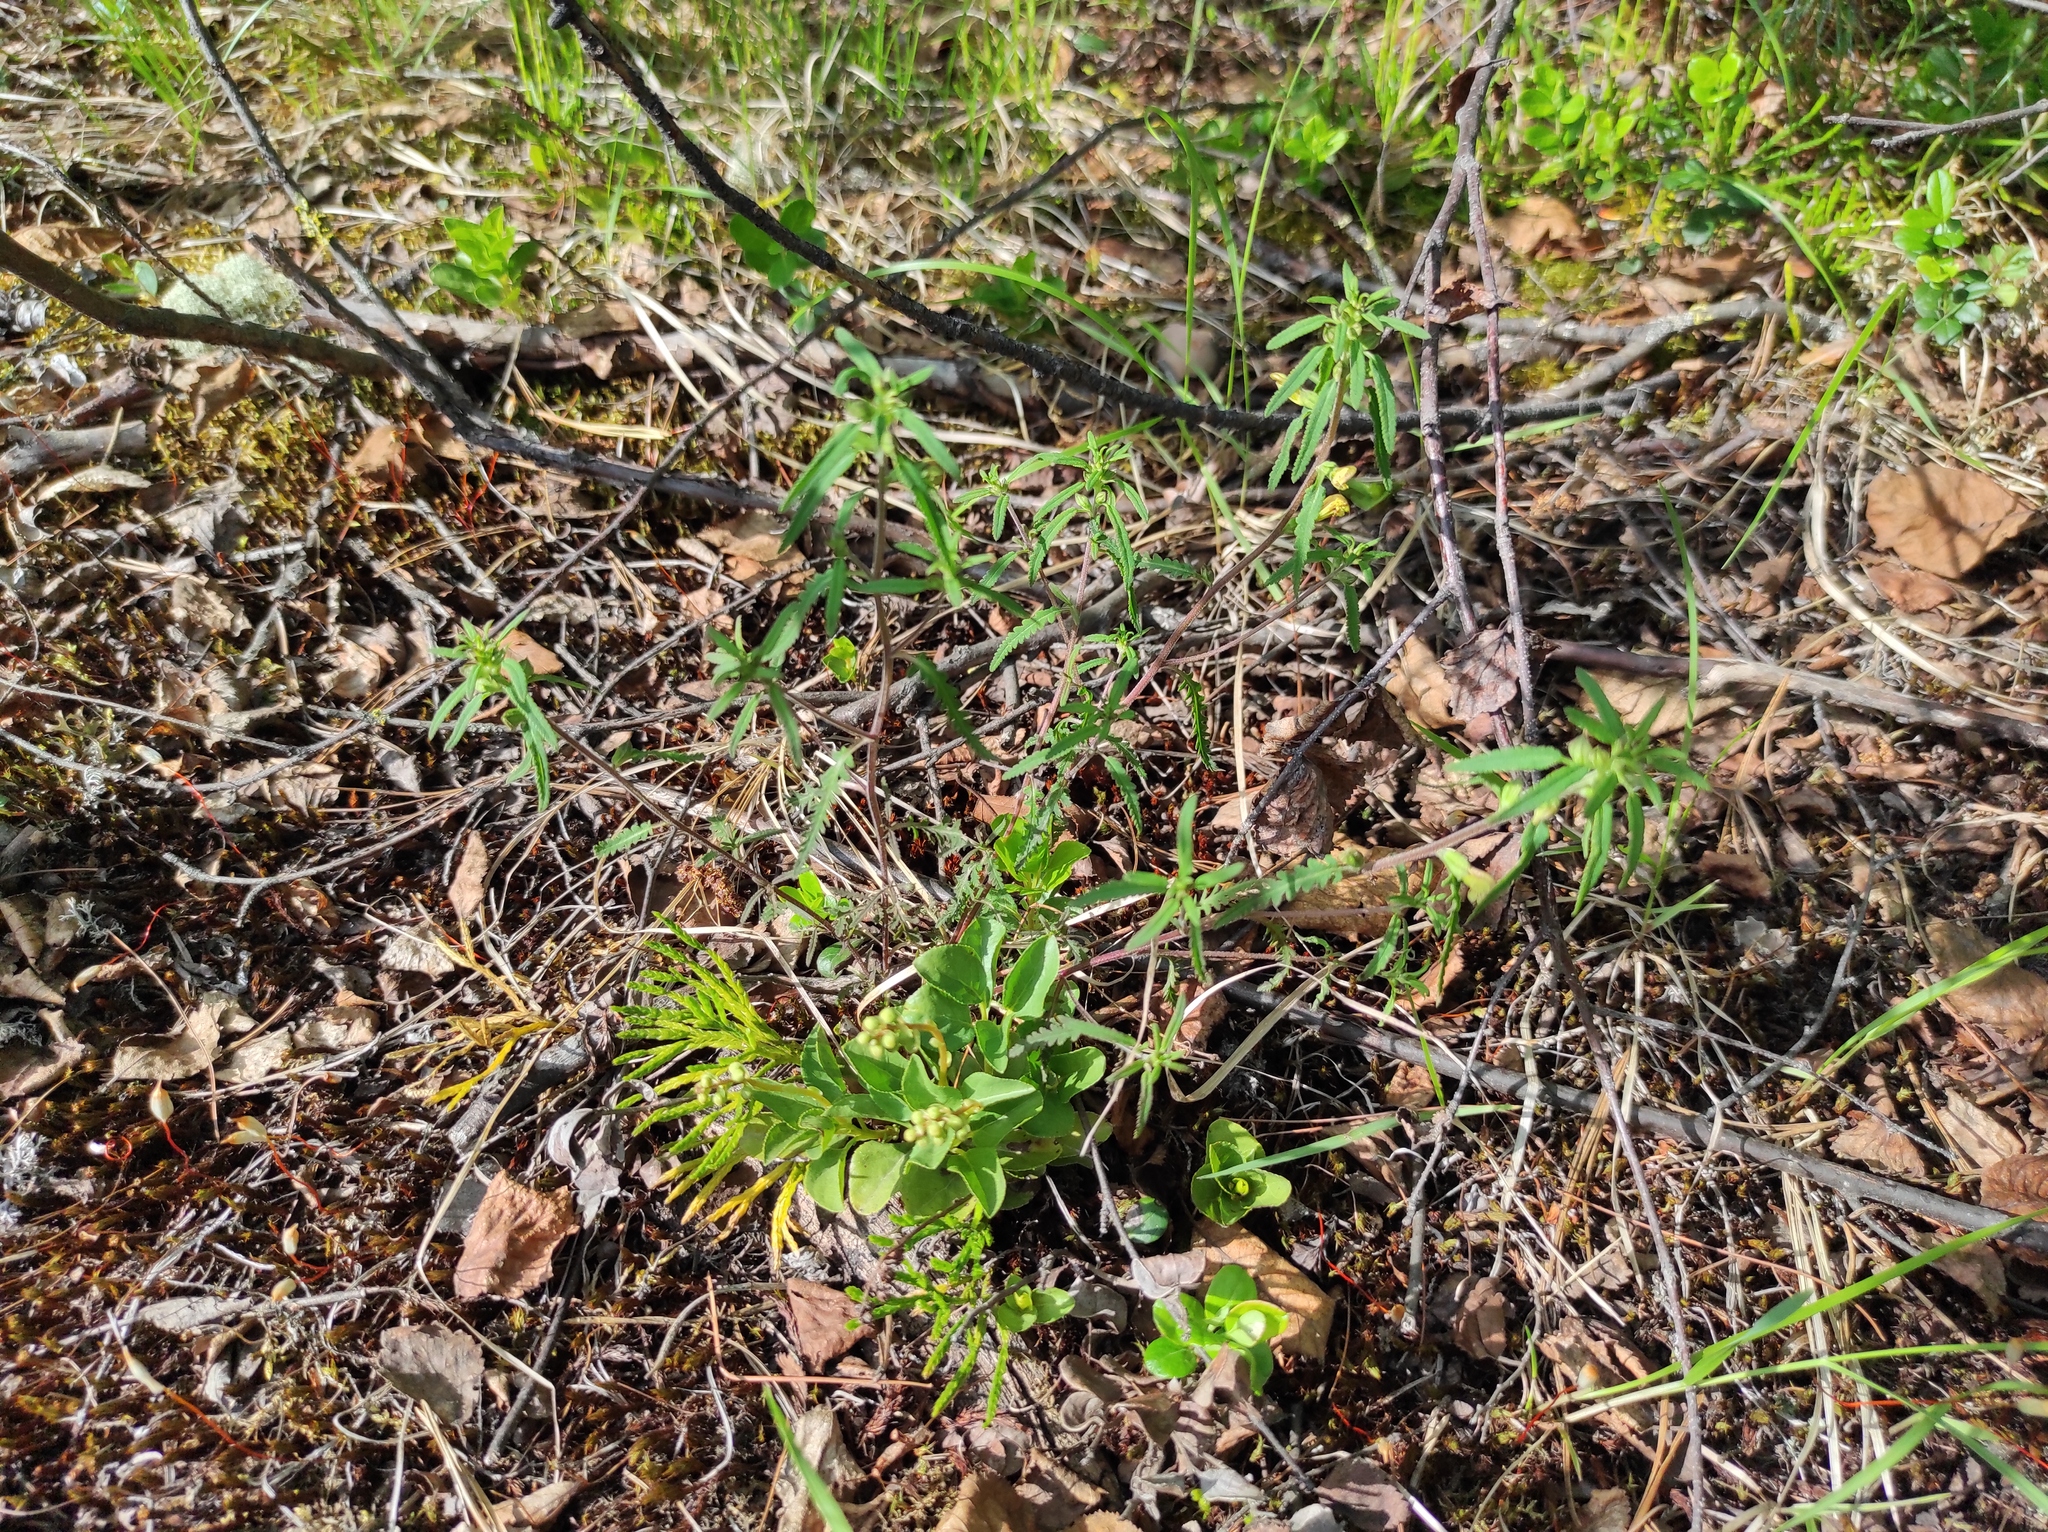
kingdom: Plantae
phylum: Tracheophyta
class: Magnoliopsida
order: Ericales
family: Ericaceae
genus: Orthilia
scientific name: Orthilia secunda
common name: One-sided orthilia
